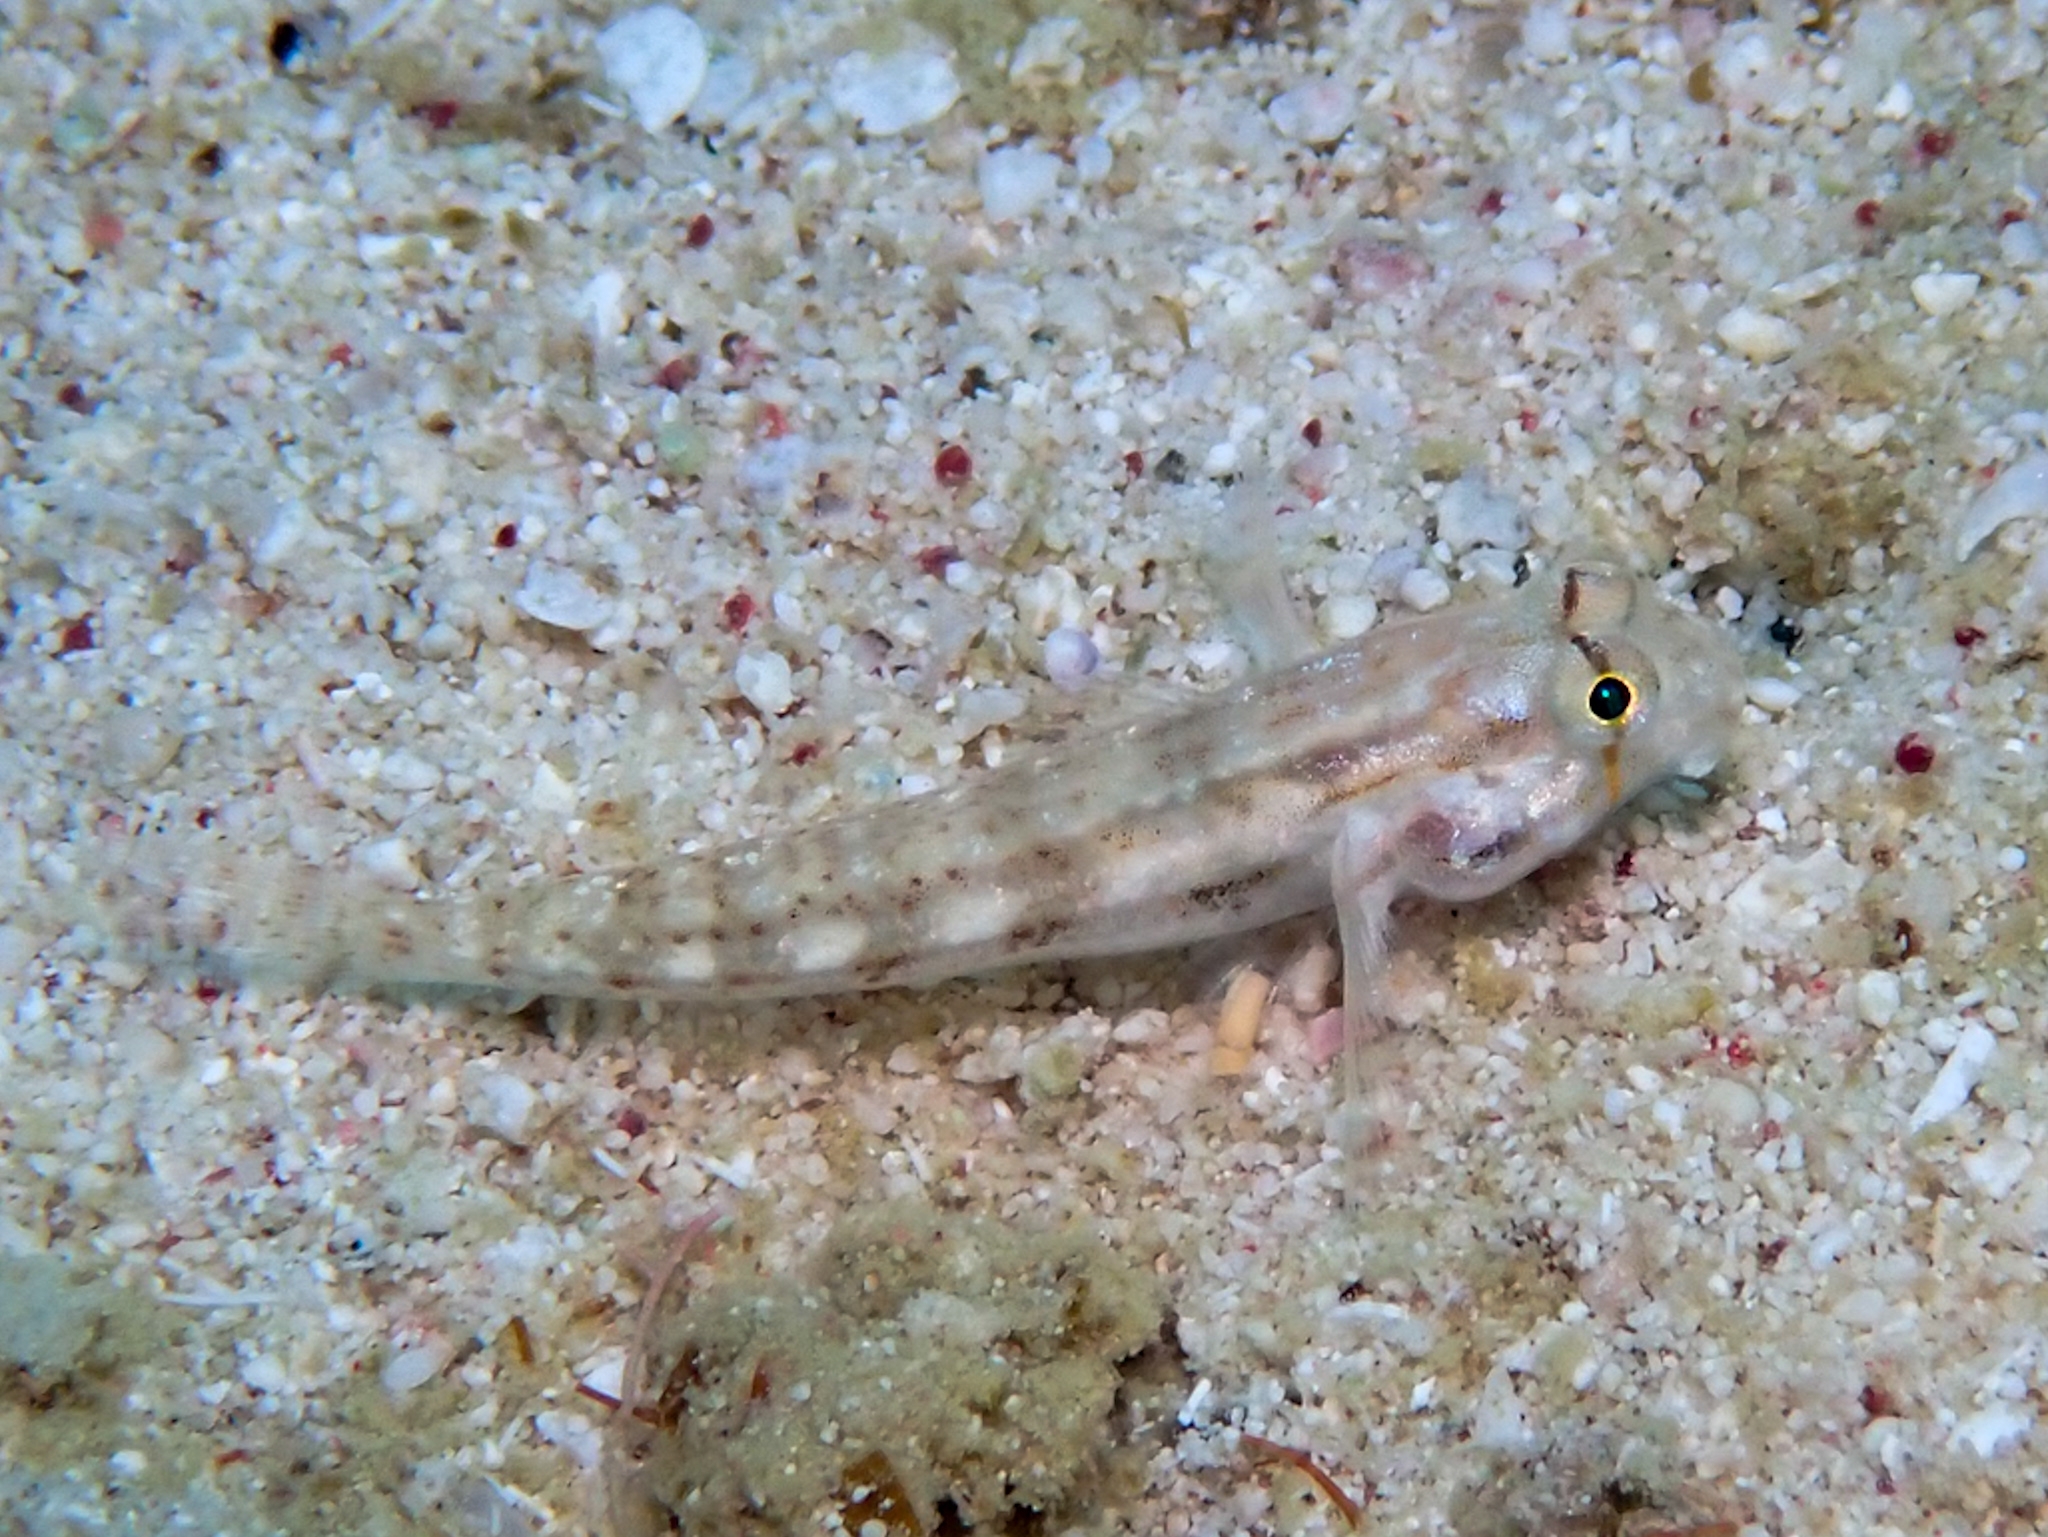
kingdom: Animalia
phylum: Chordata
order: Perciformes
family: Gobiidae
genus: Gnatholepis
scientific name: Gnatholepis thompsoni
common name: Goldspot goby
